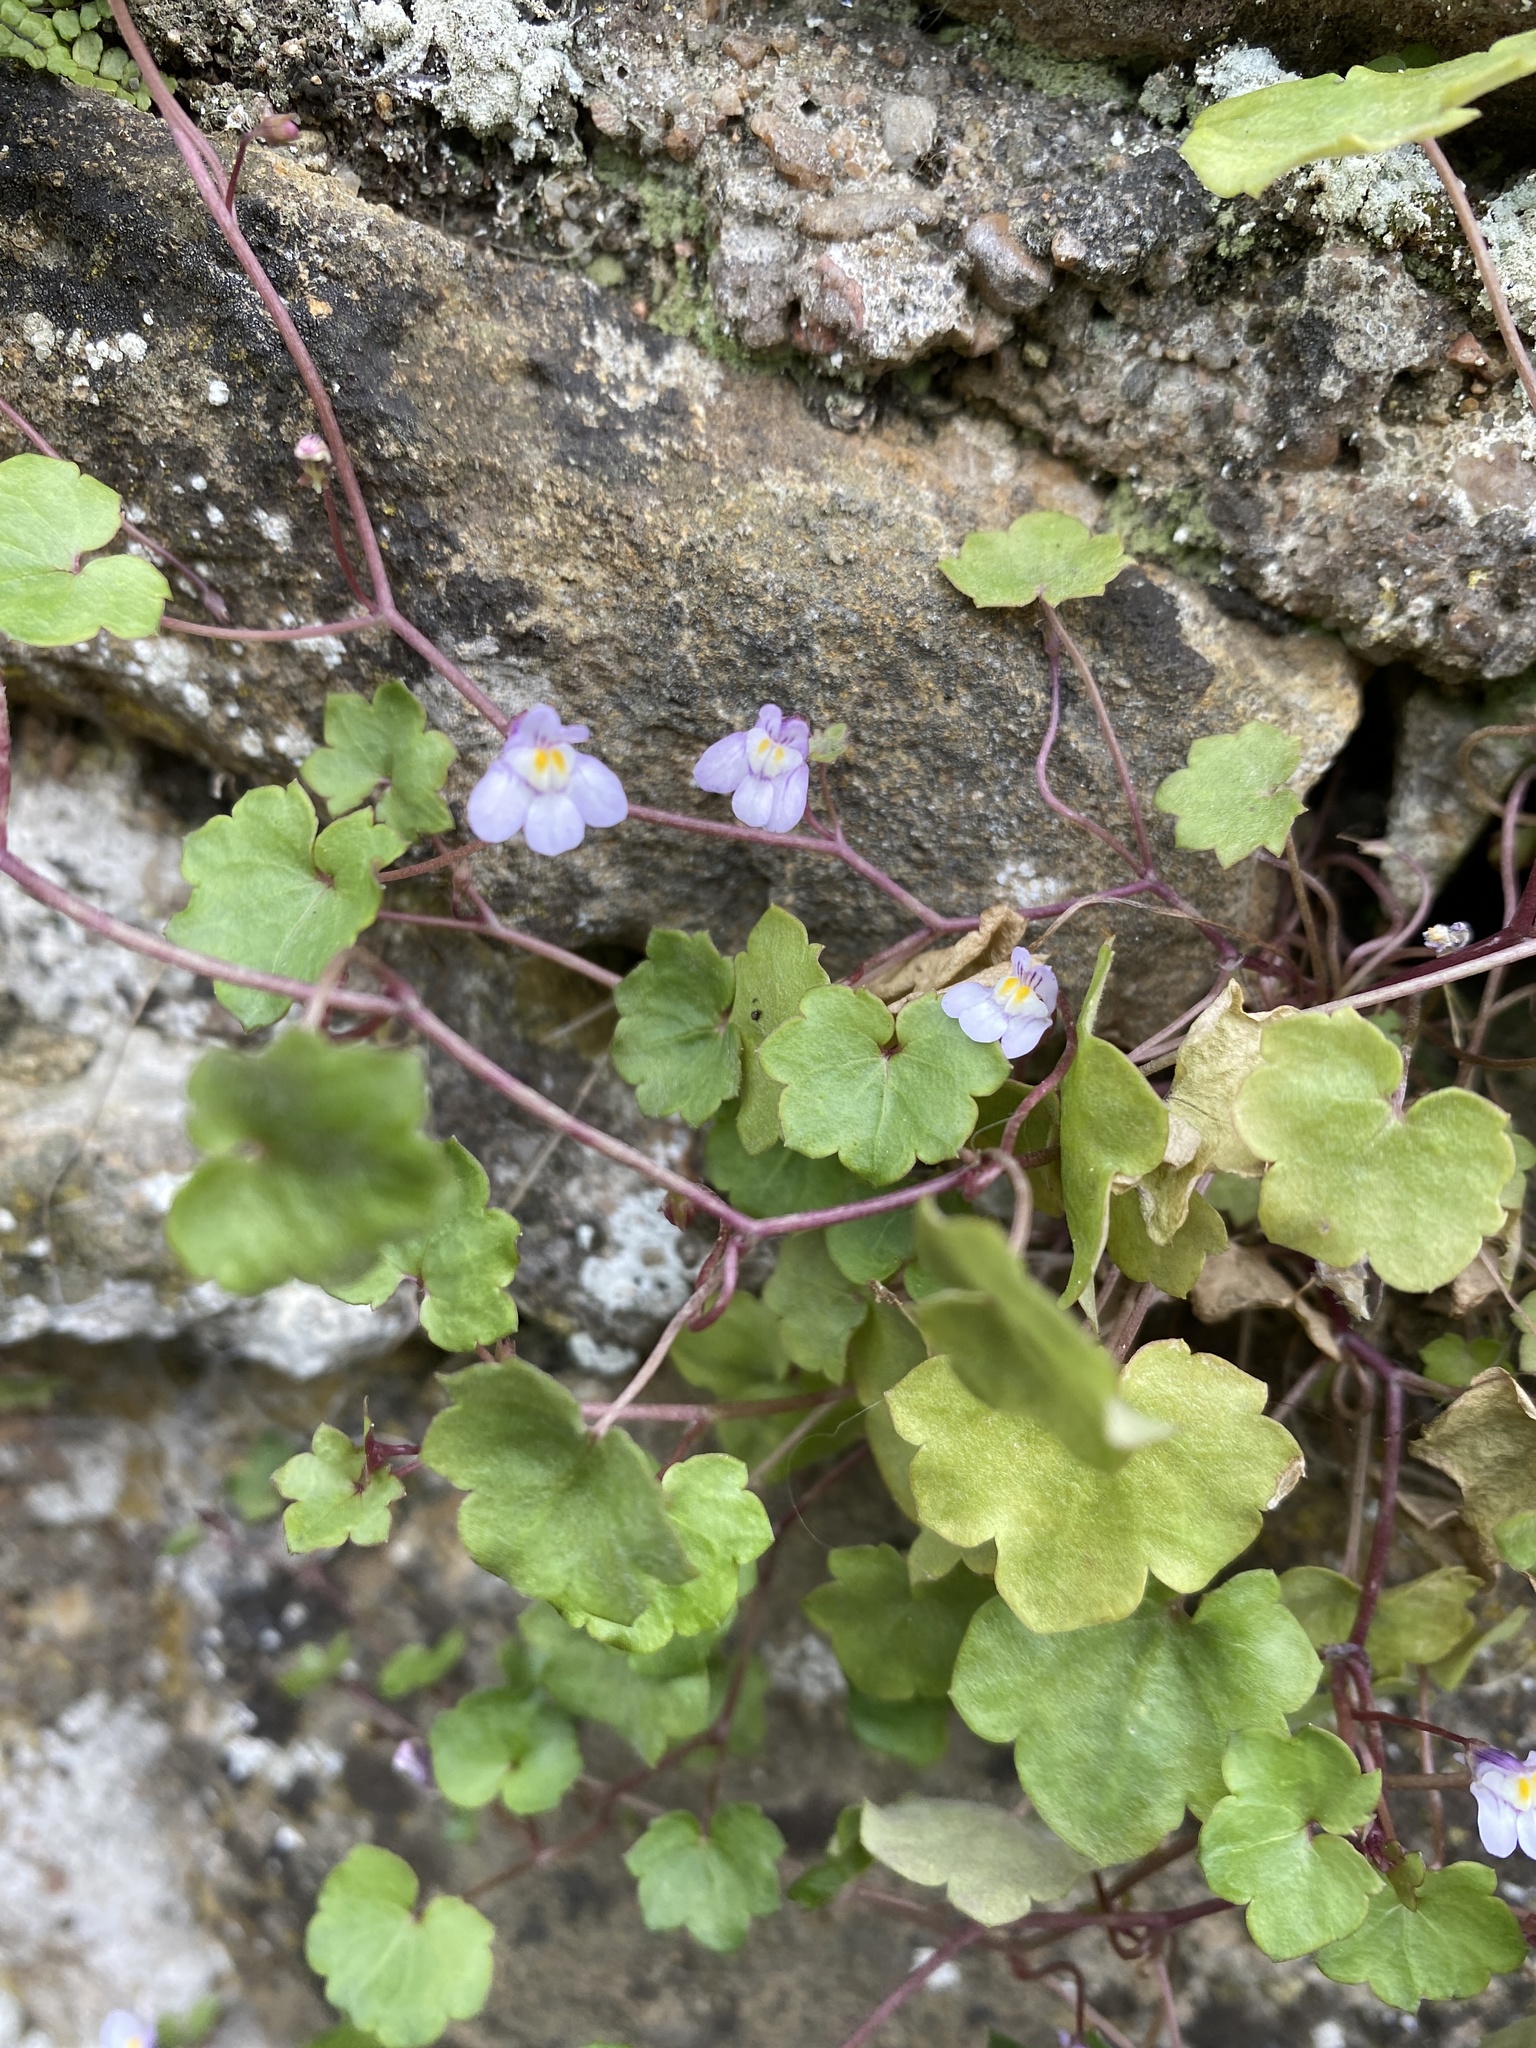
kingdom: Plantae
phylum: Tracheophyta
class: Magnoliopsida
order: Lamiales
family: Plantaginaceae
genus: Cymbalaria
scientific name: Cymbalaria muralis
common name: Ivy-leaved toadflax
